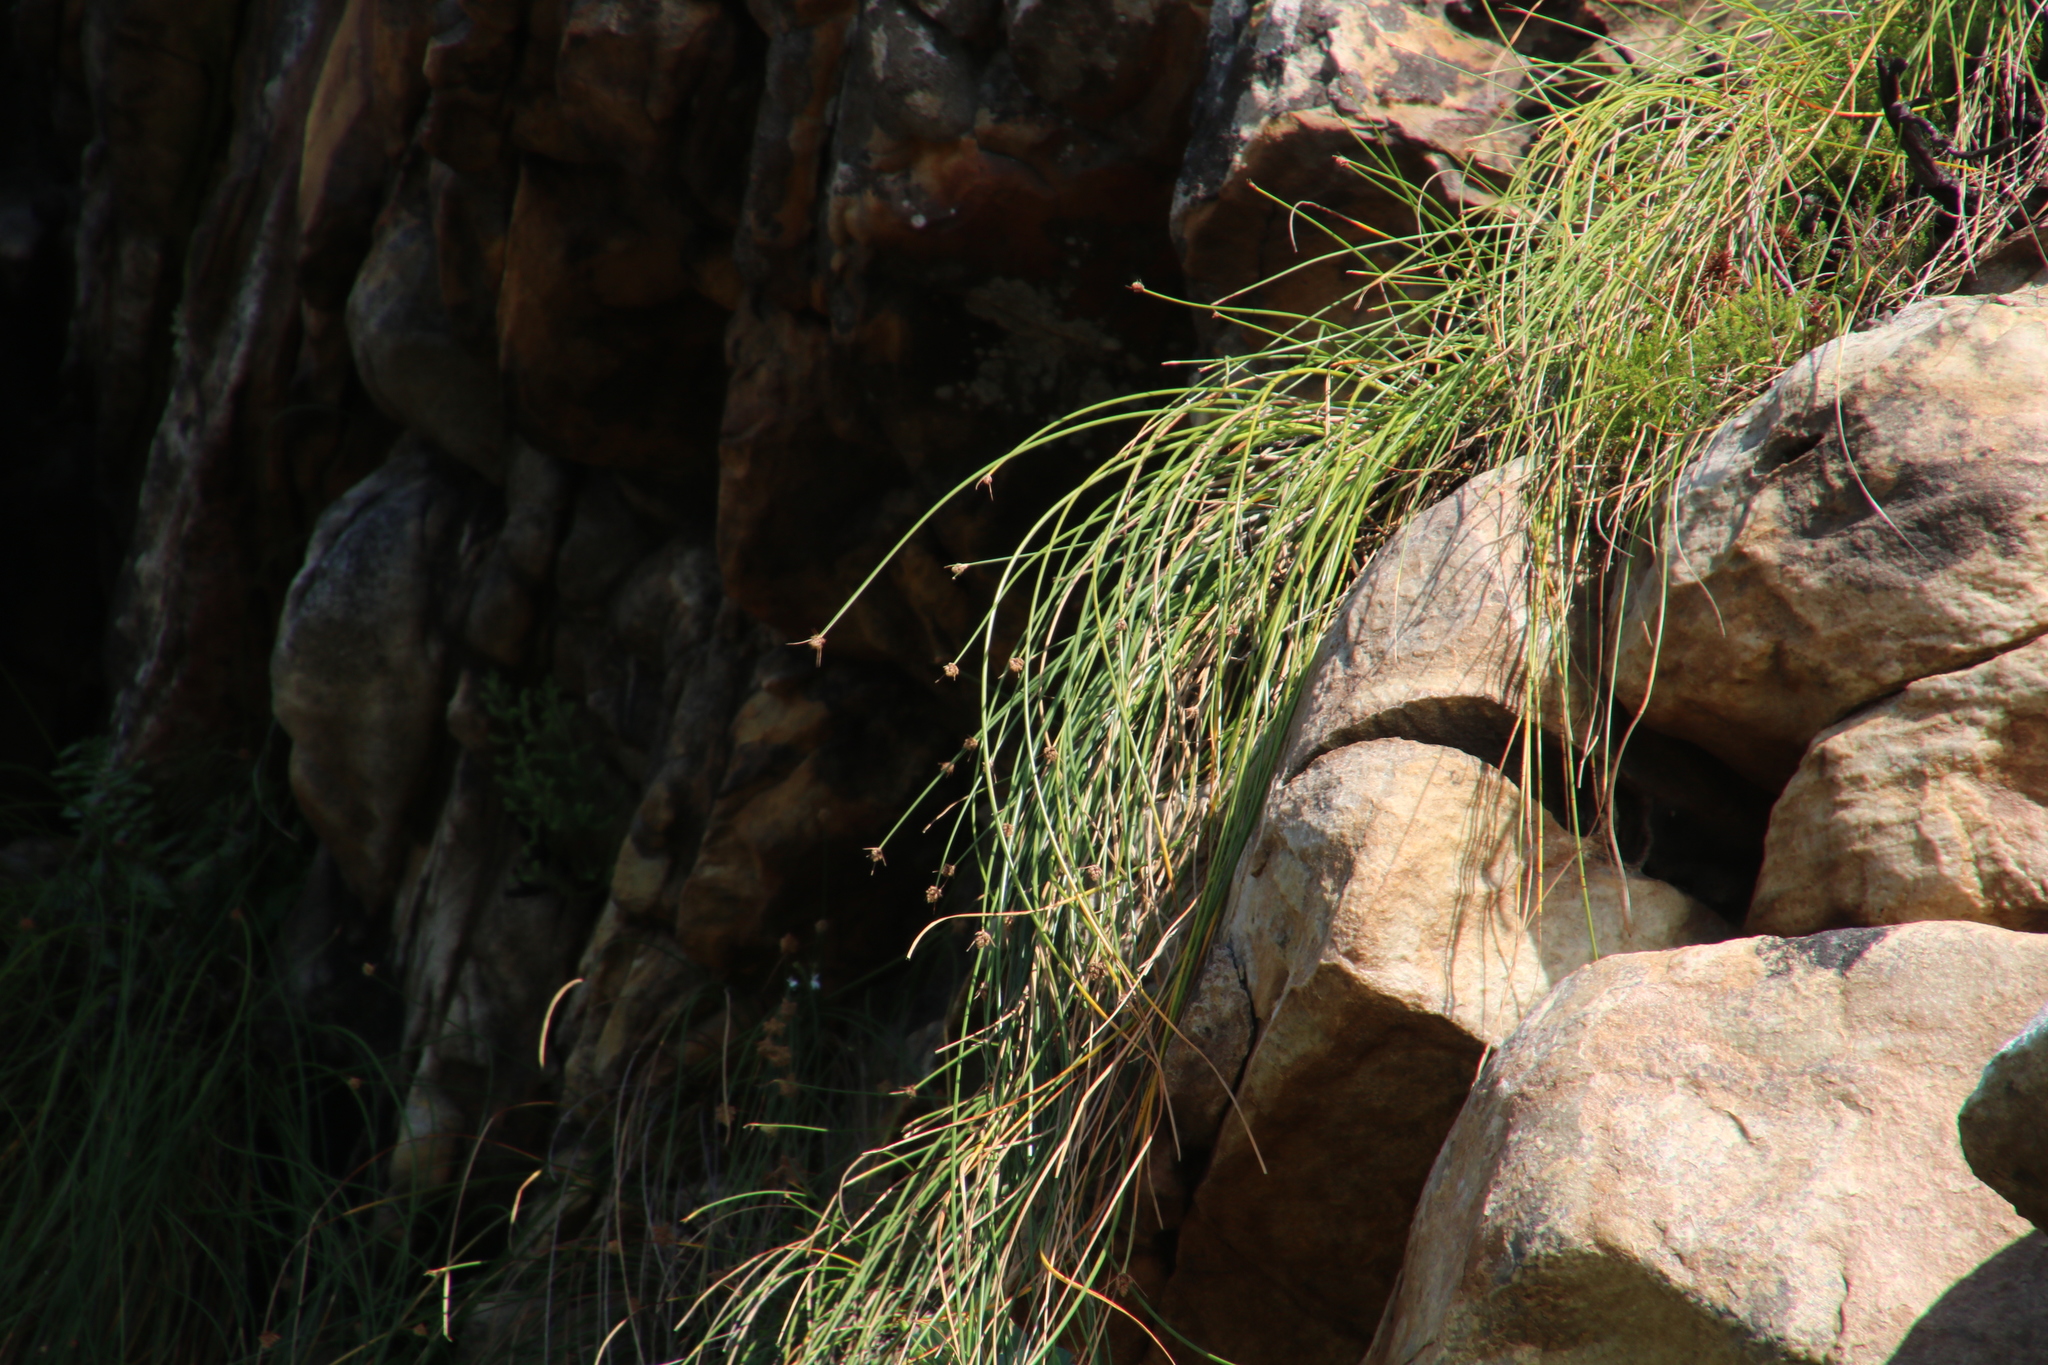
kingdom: Plantae
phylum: Tracheophyta
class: Liliopsida
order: Poales
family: Cyperaceae
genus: Ficinia
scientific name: Ficinia brevifolia
